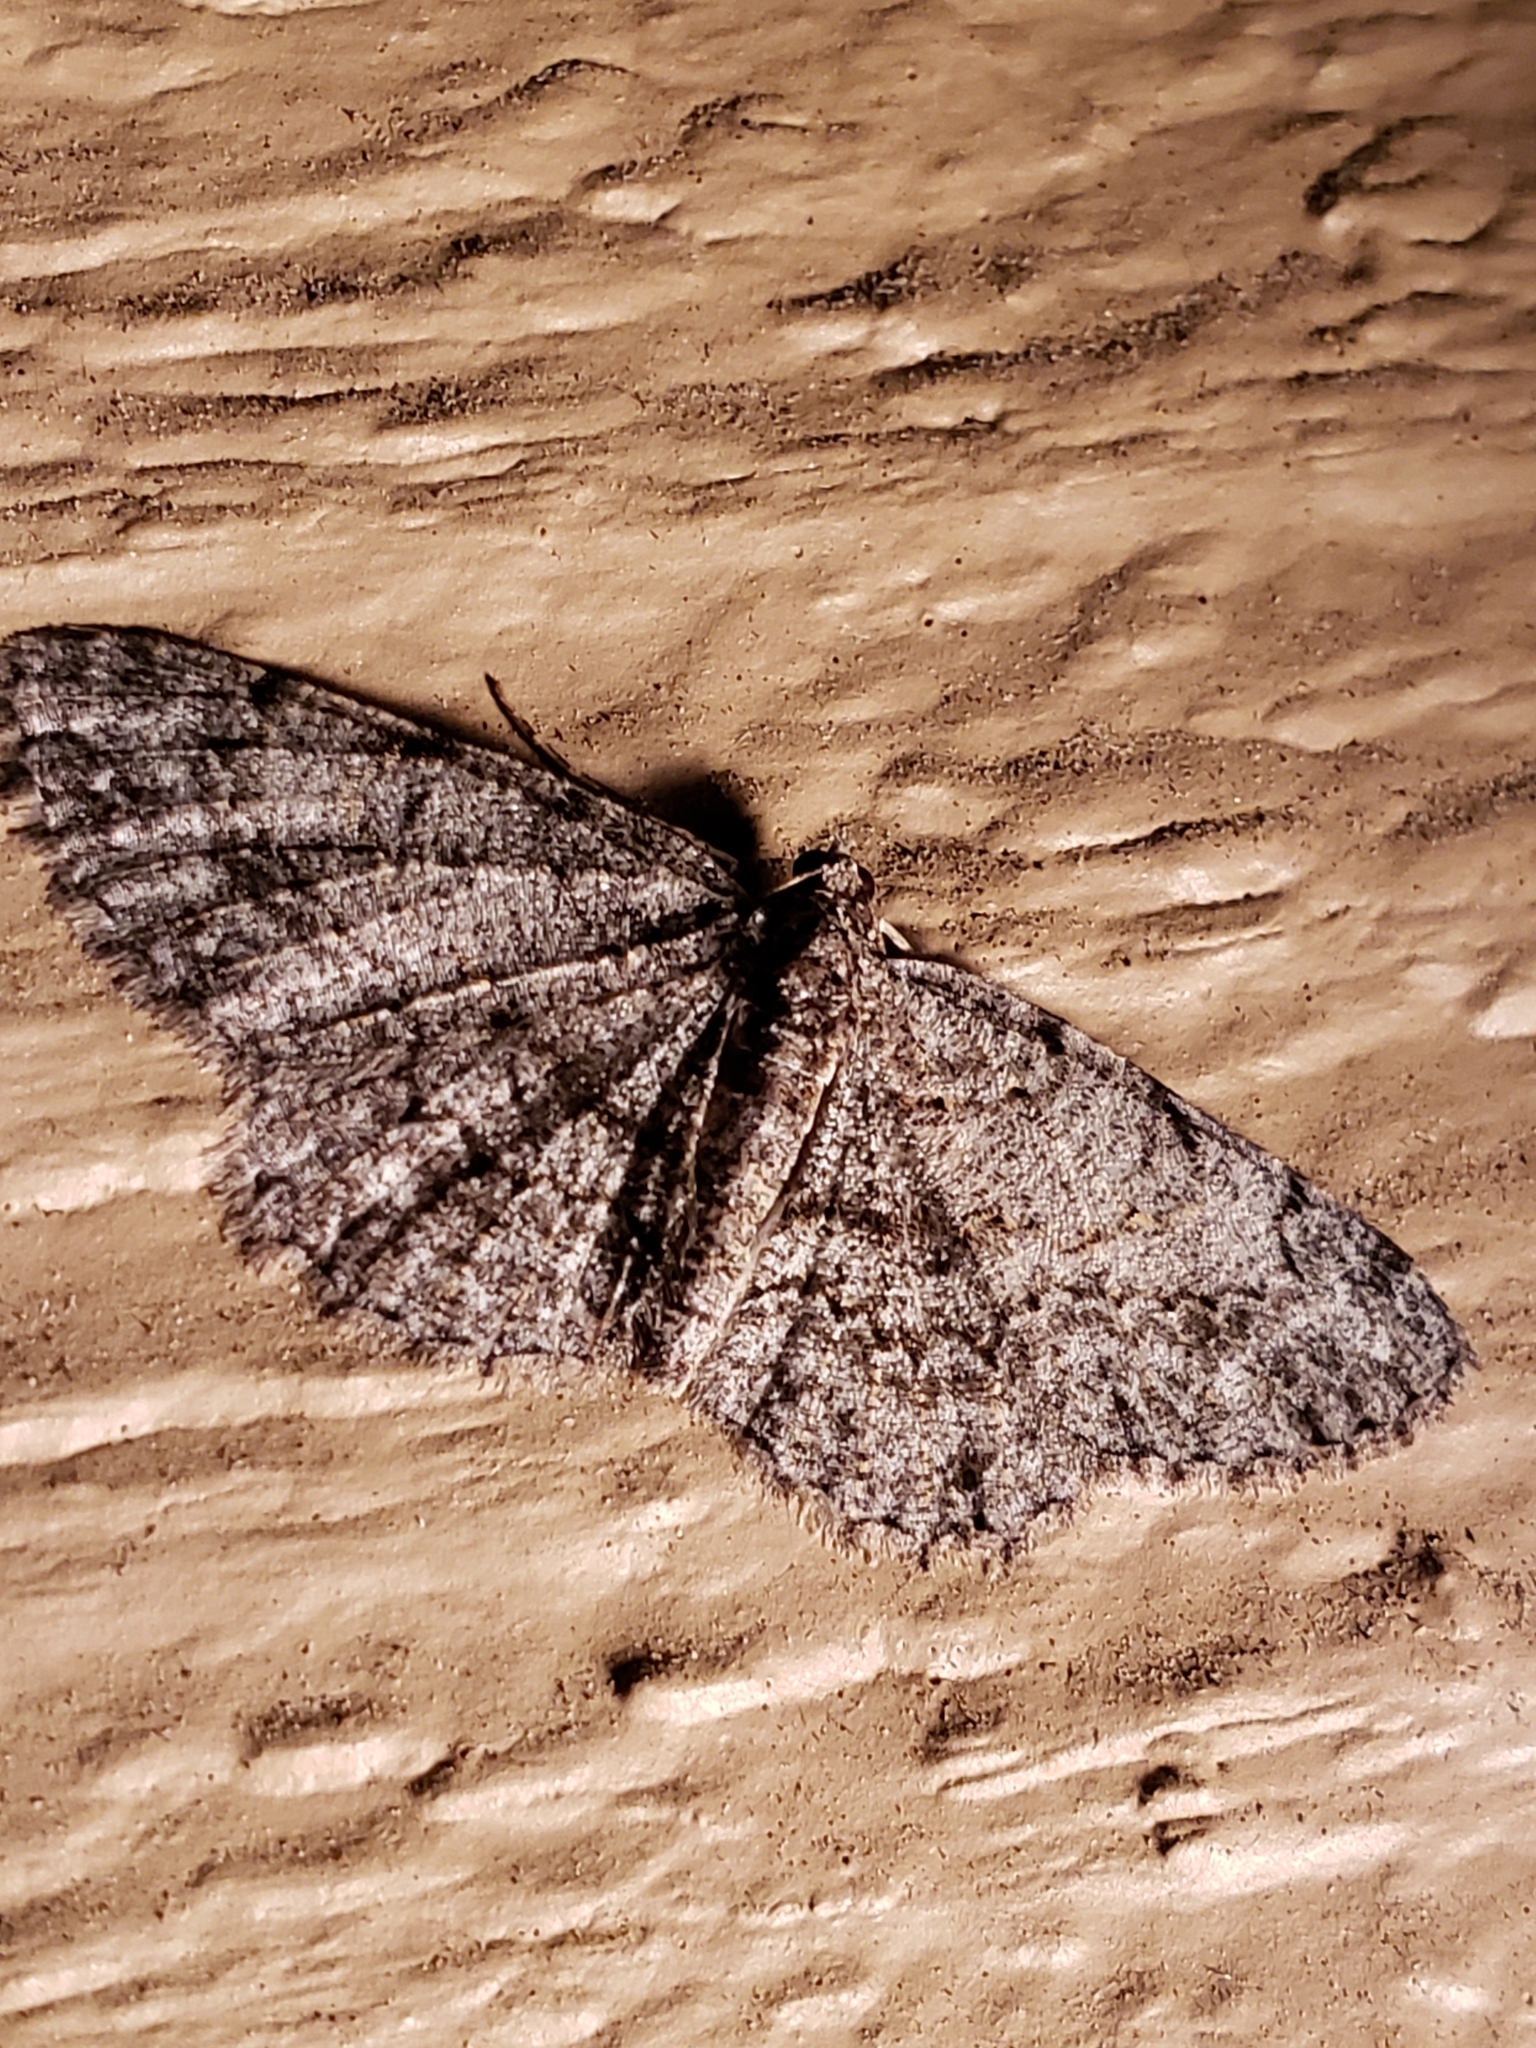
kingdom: Animalia
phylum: Arthropoda
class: Insecta
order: Lepidoptera
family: Geometridae
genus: Protoboarmia
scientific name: Protoboarmia porcelaria
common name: Porcelain gray
